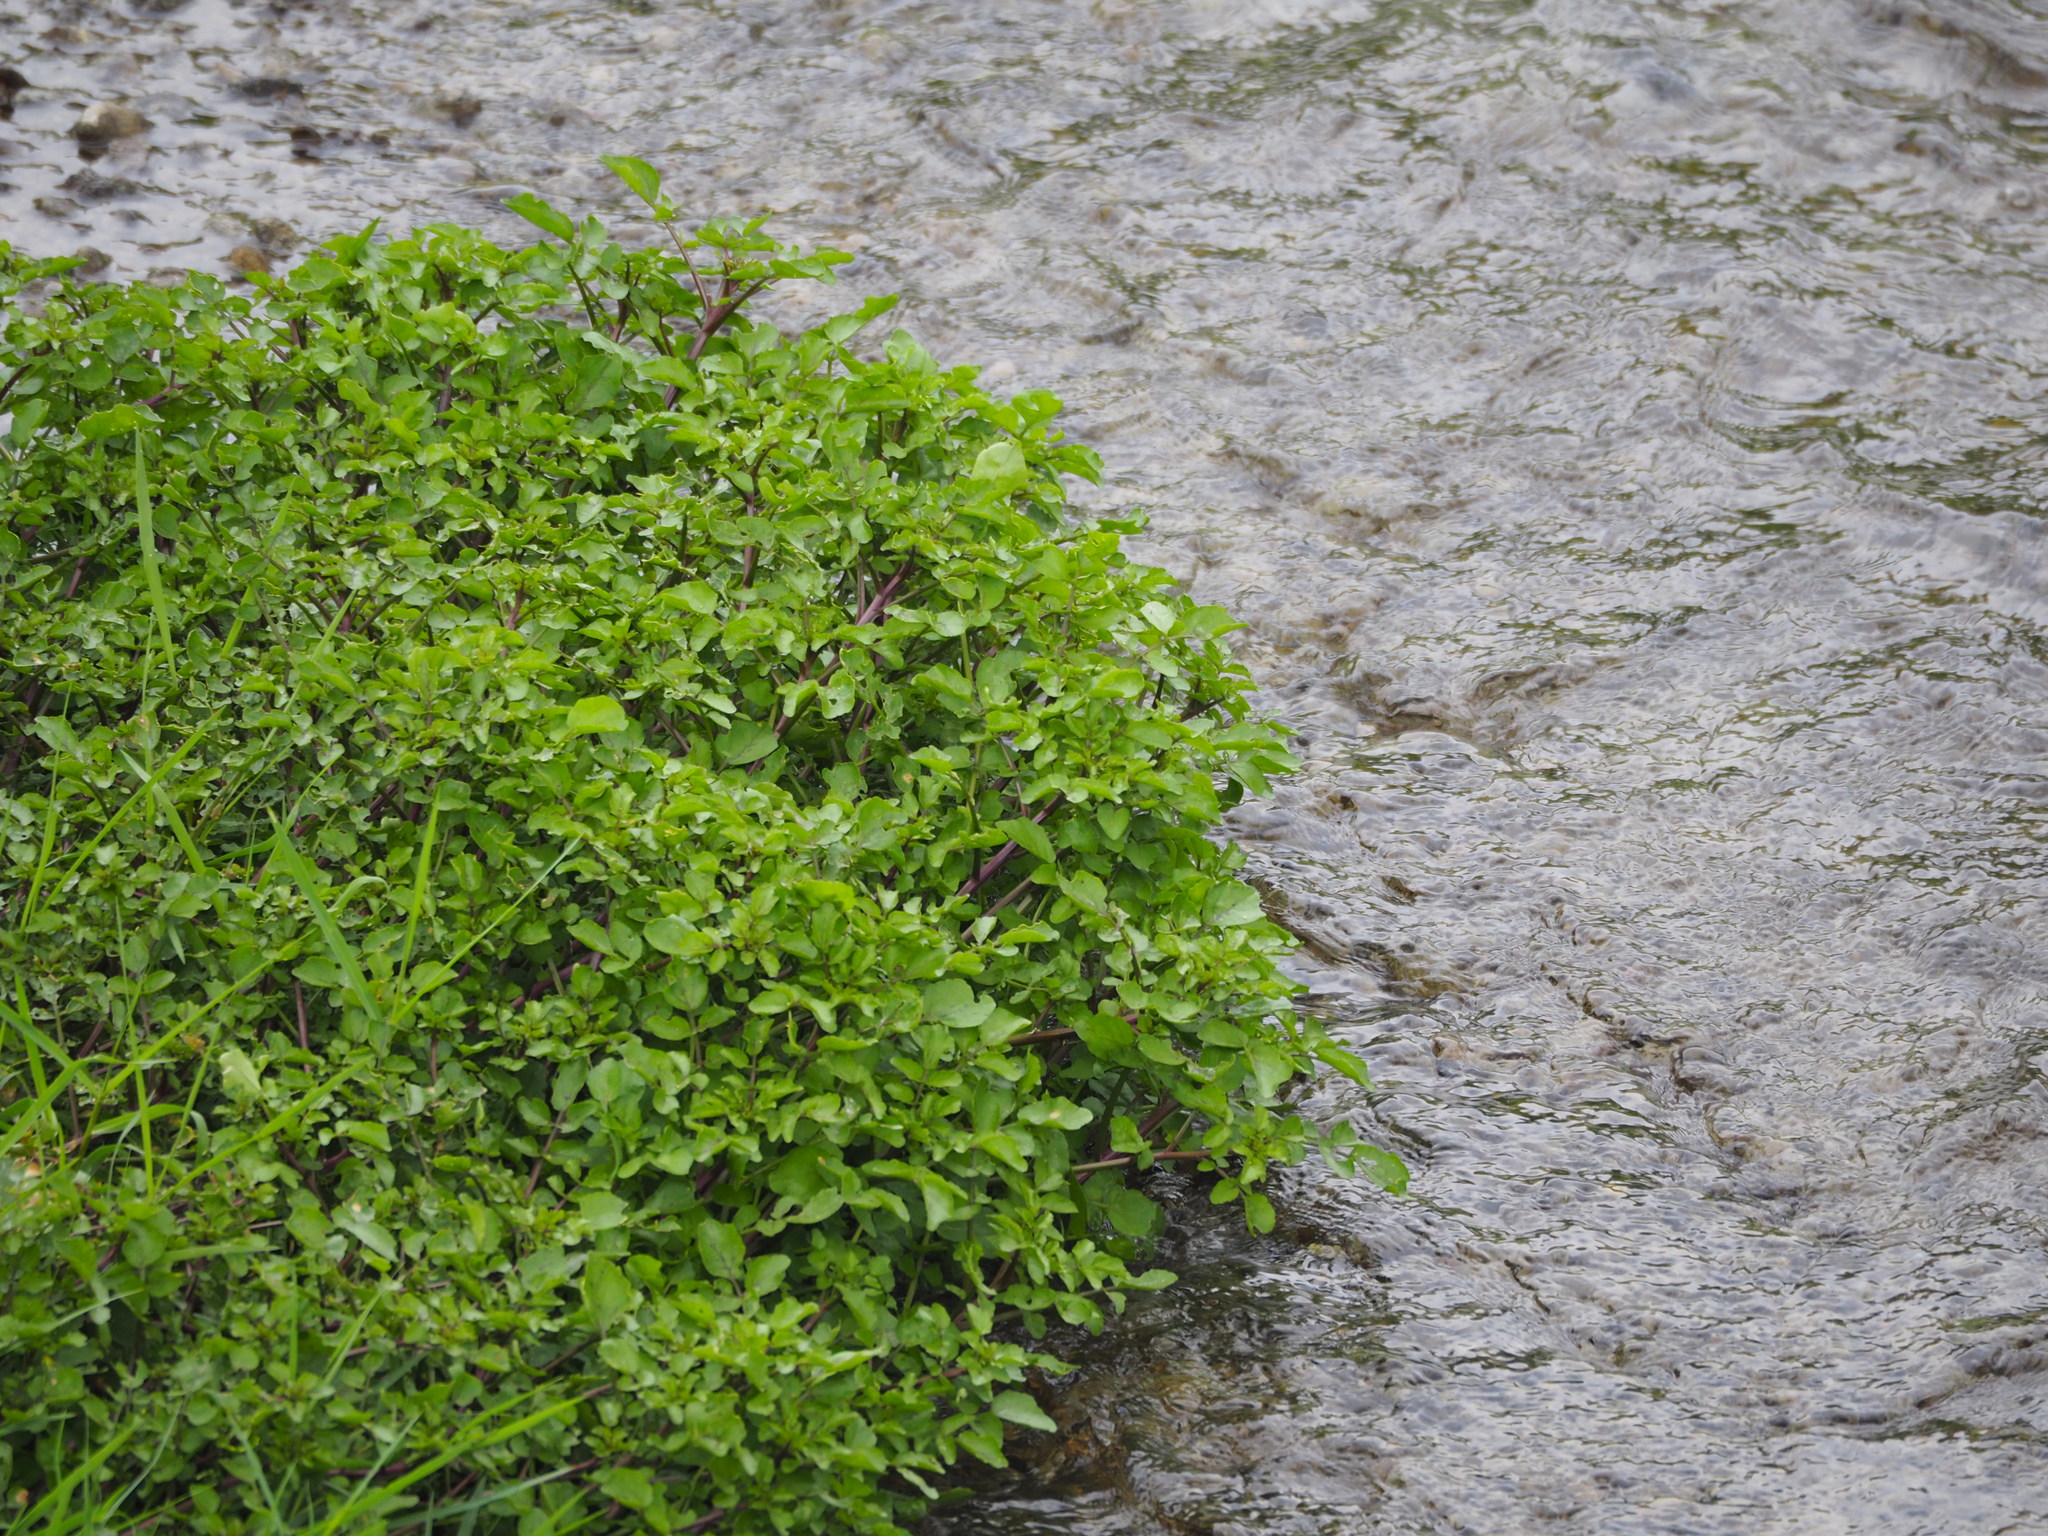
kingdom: Plantae
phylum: Tracheophyta
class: Magnoliopsida
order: Brassicales
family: Brassicaceae
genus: Nasturtium
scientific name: Nasturtium officinale
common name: Watercress
